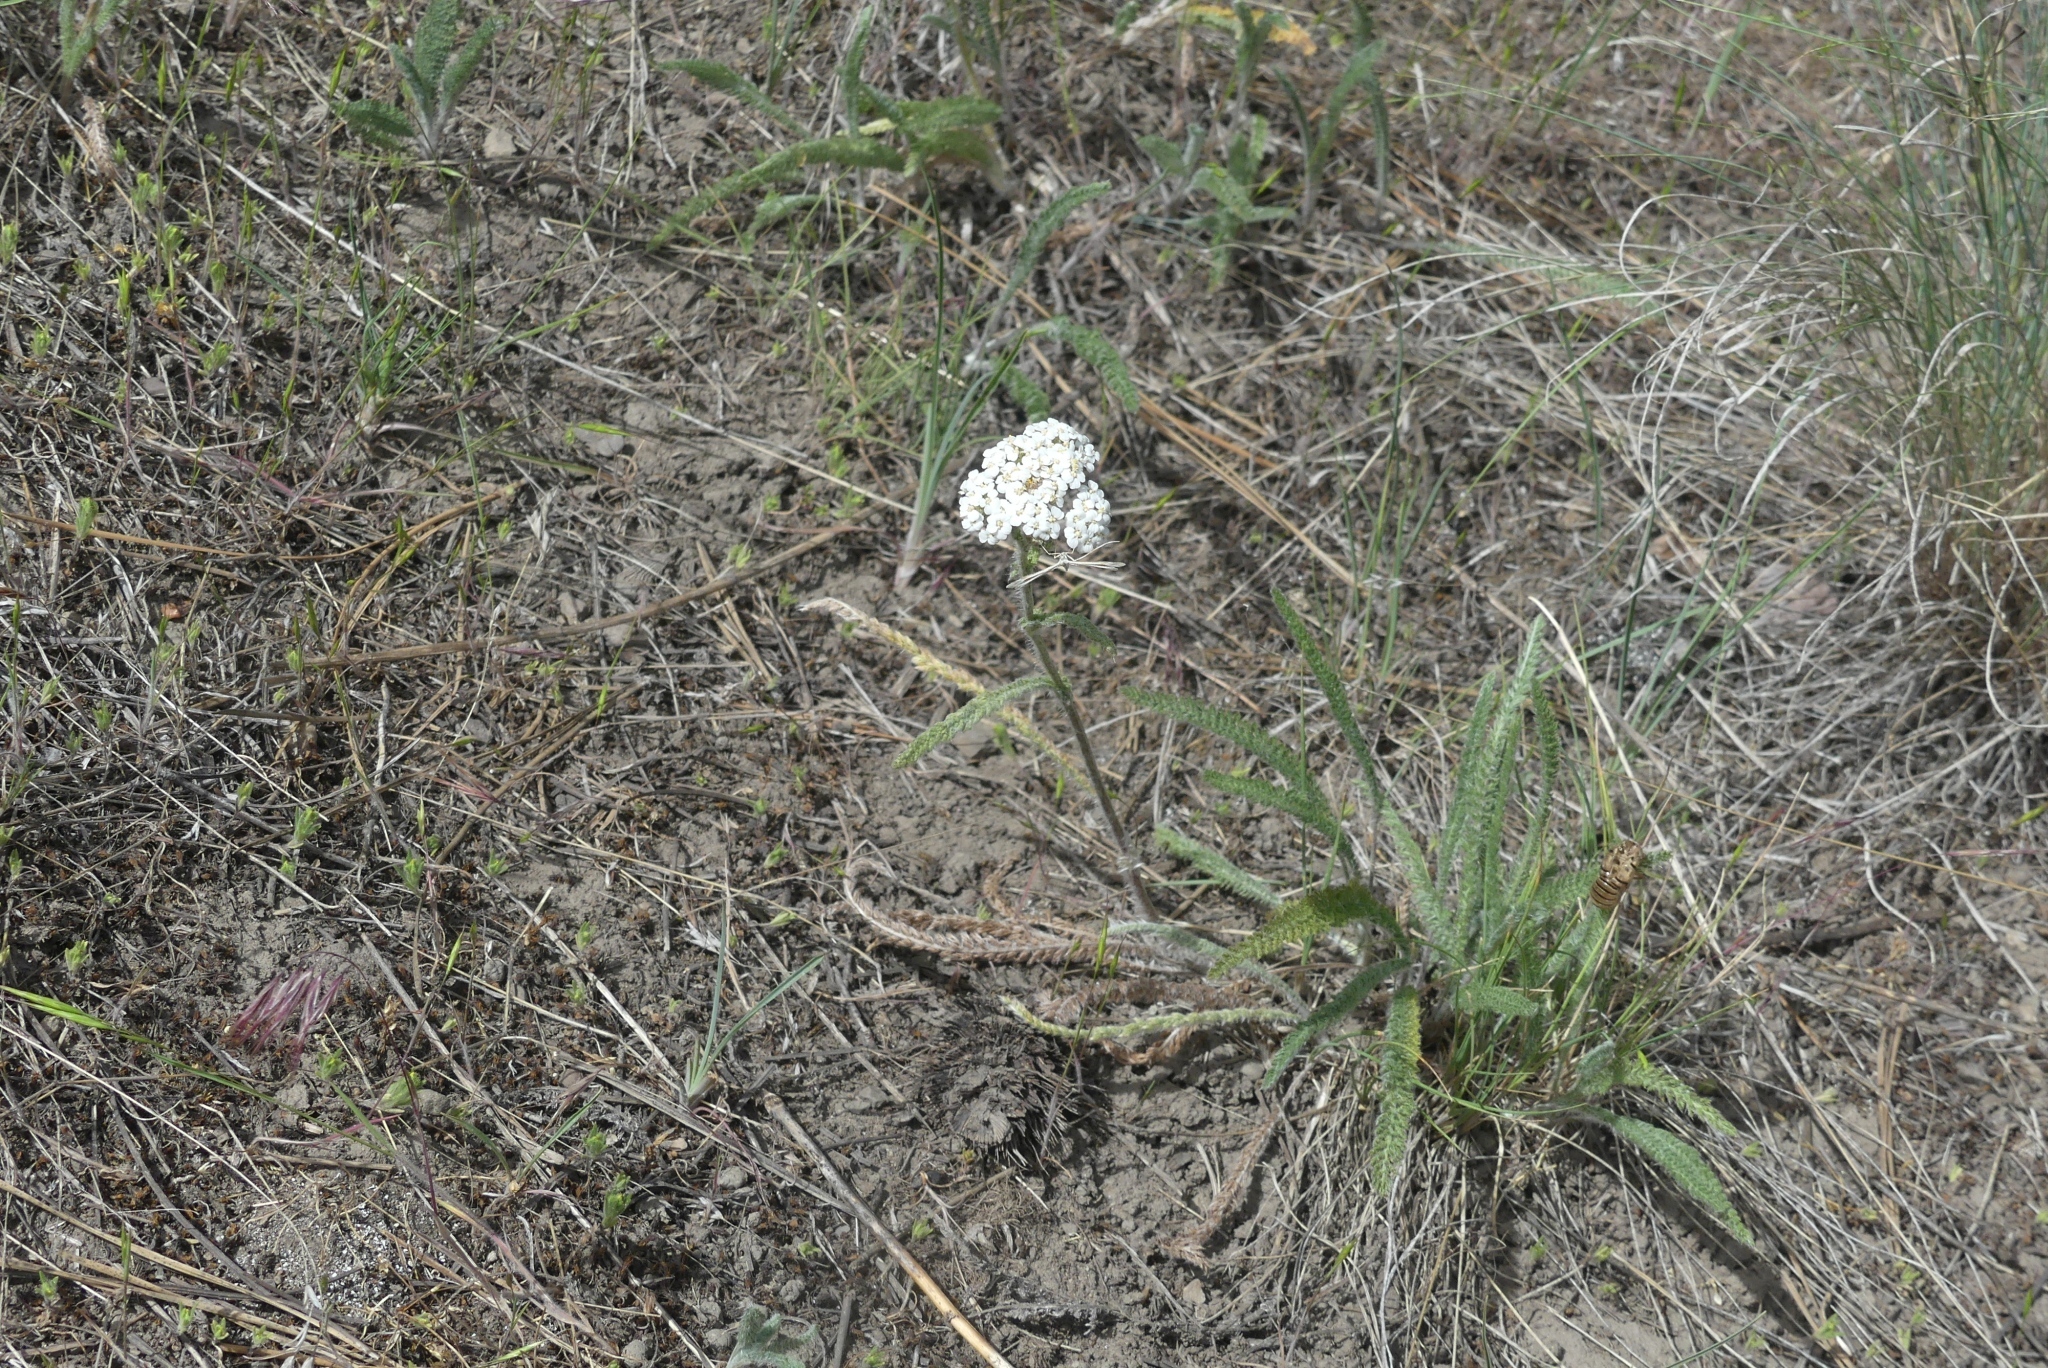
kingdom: Plantae
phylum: Tracheophyta
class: Magnoliopsida
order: Asterales
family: Asteraceae
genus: Achillea
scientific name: Achillea millefolium
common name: Yarrow
